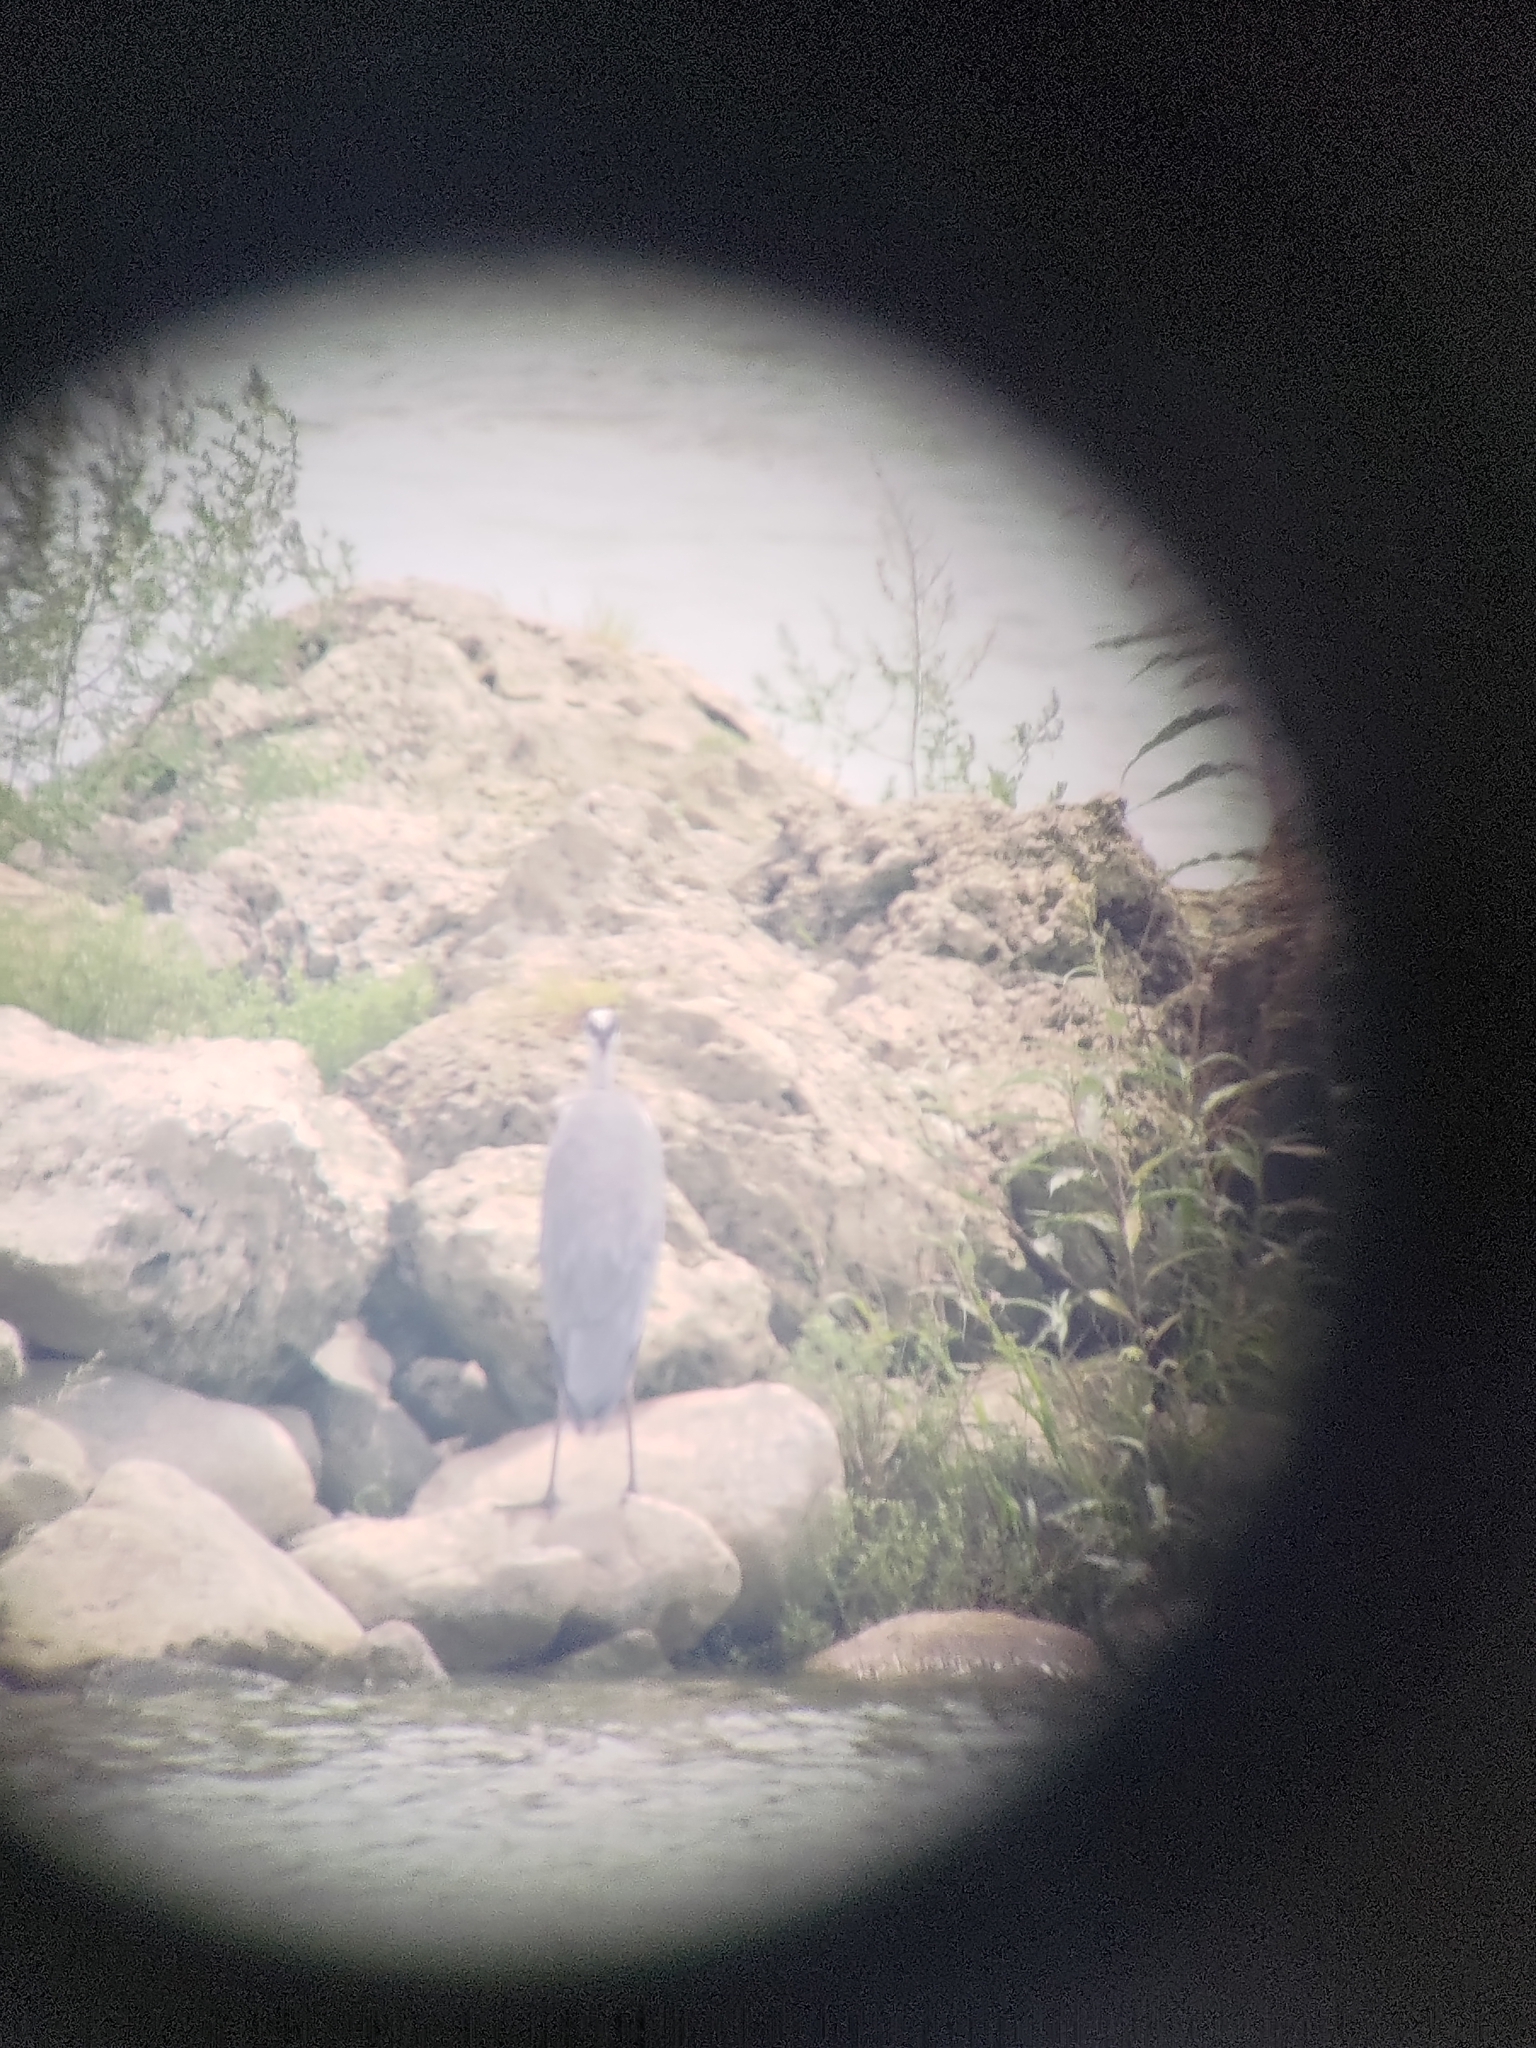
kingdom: Animalia
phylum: Chordata
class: Aves
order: Pelecaniformes
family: Ardeidae
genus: Ardea
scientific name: Ardea cinerea
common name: Grey heron
